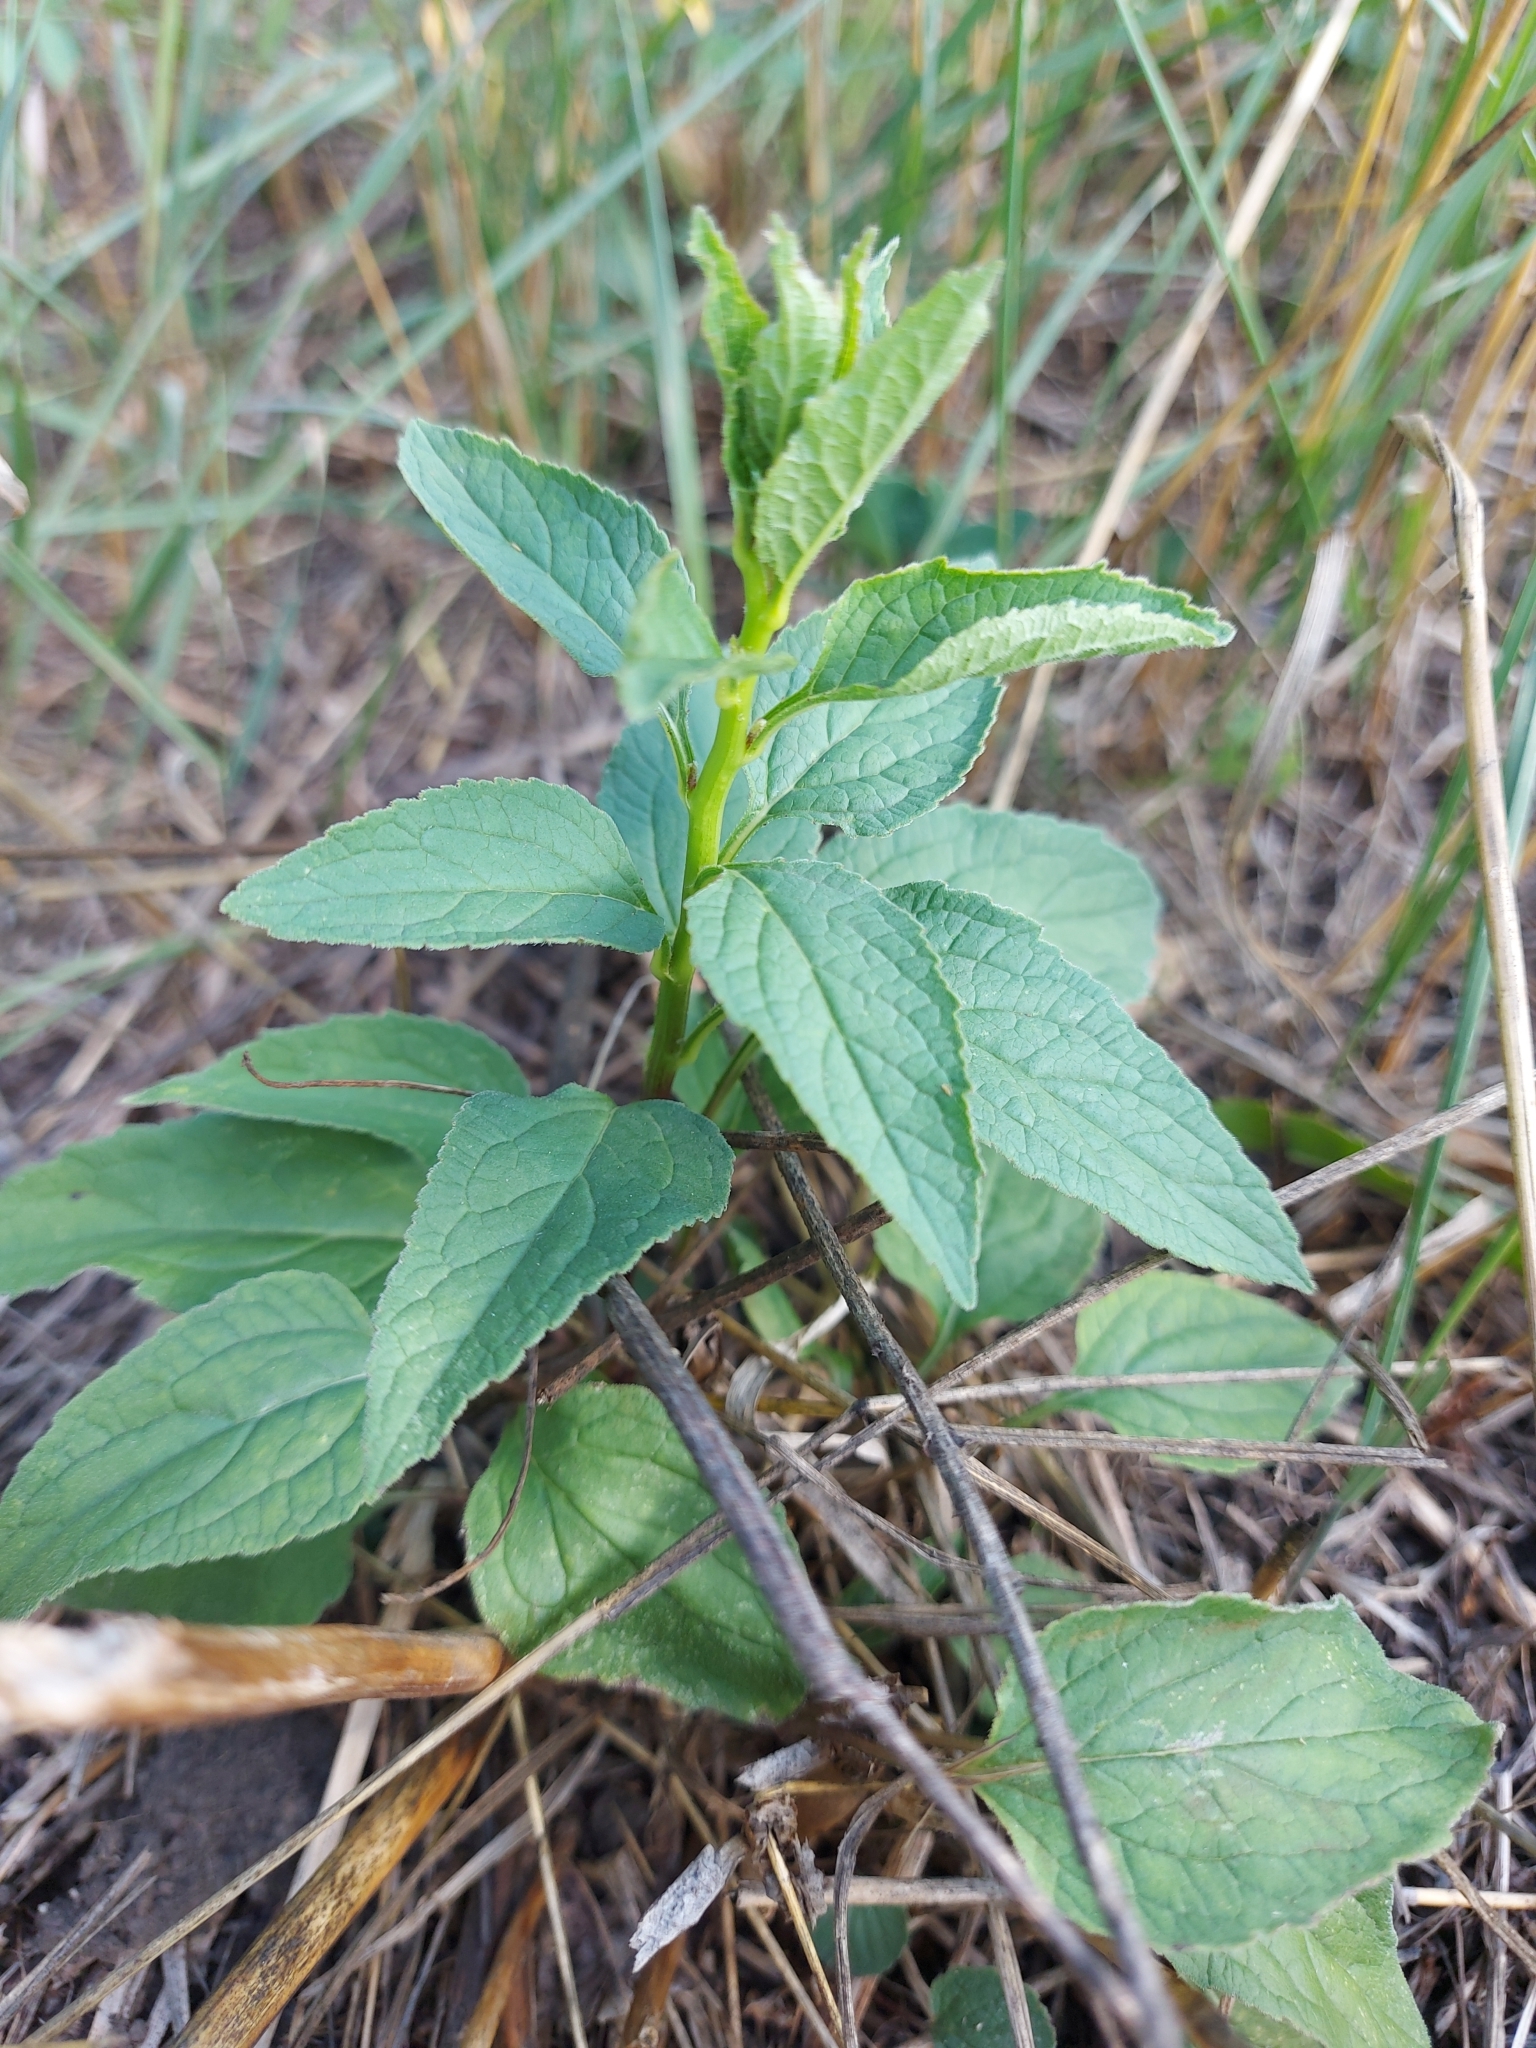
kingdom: Plantae
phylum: Tracheophyta
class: Magnoliopsida
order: Asterales
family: Campanulaceae
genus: Campanula
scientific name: Campanula rapunculoides
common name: Creeping bellflower
